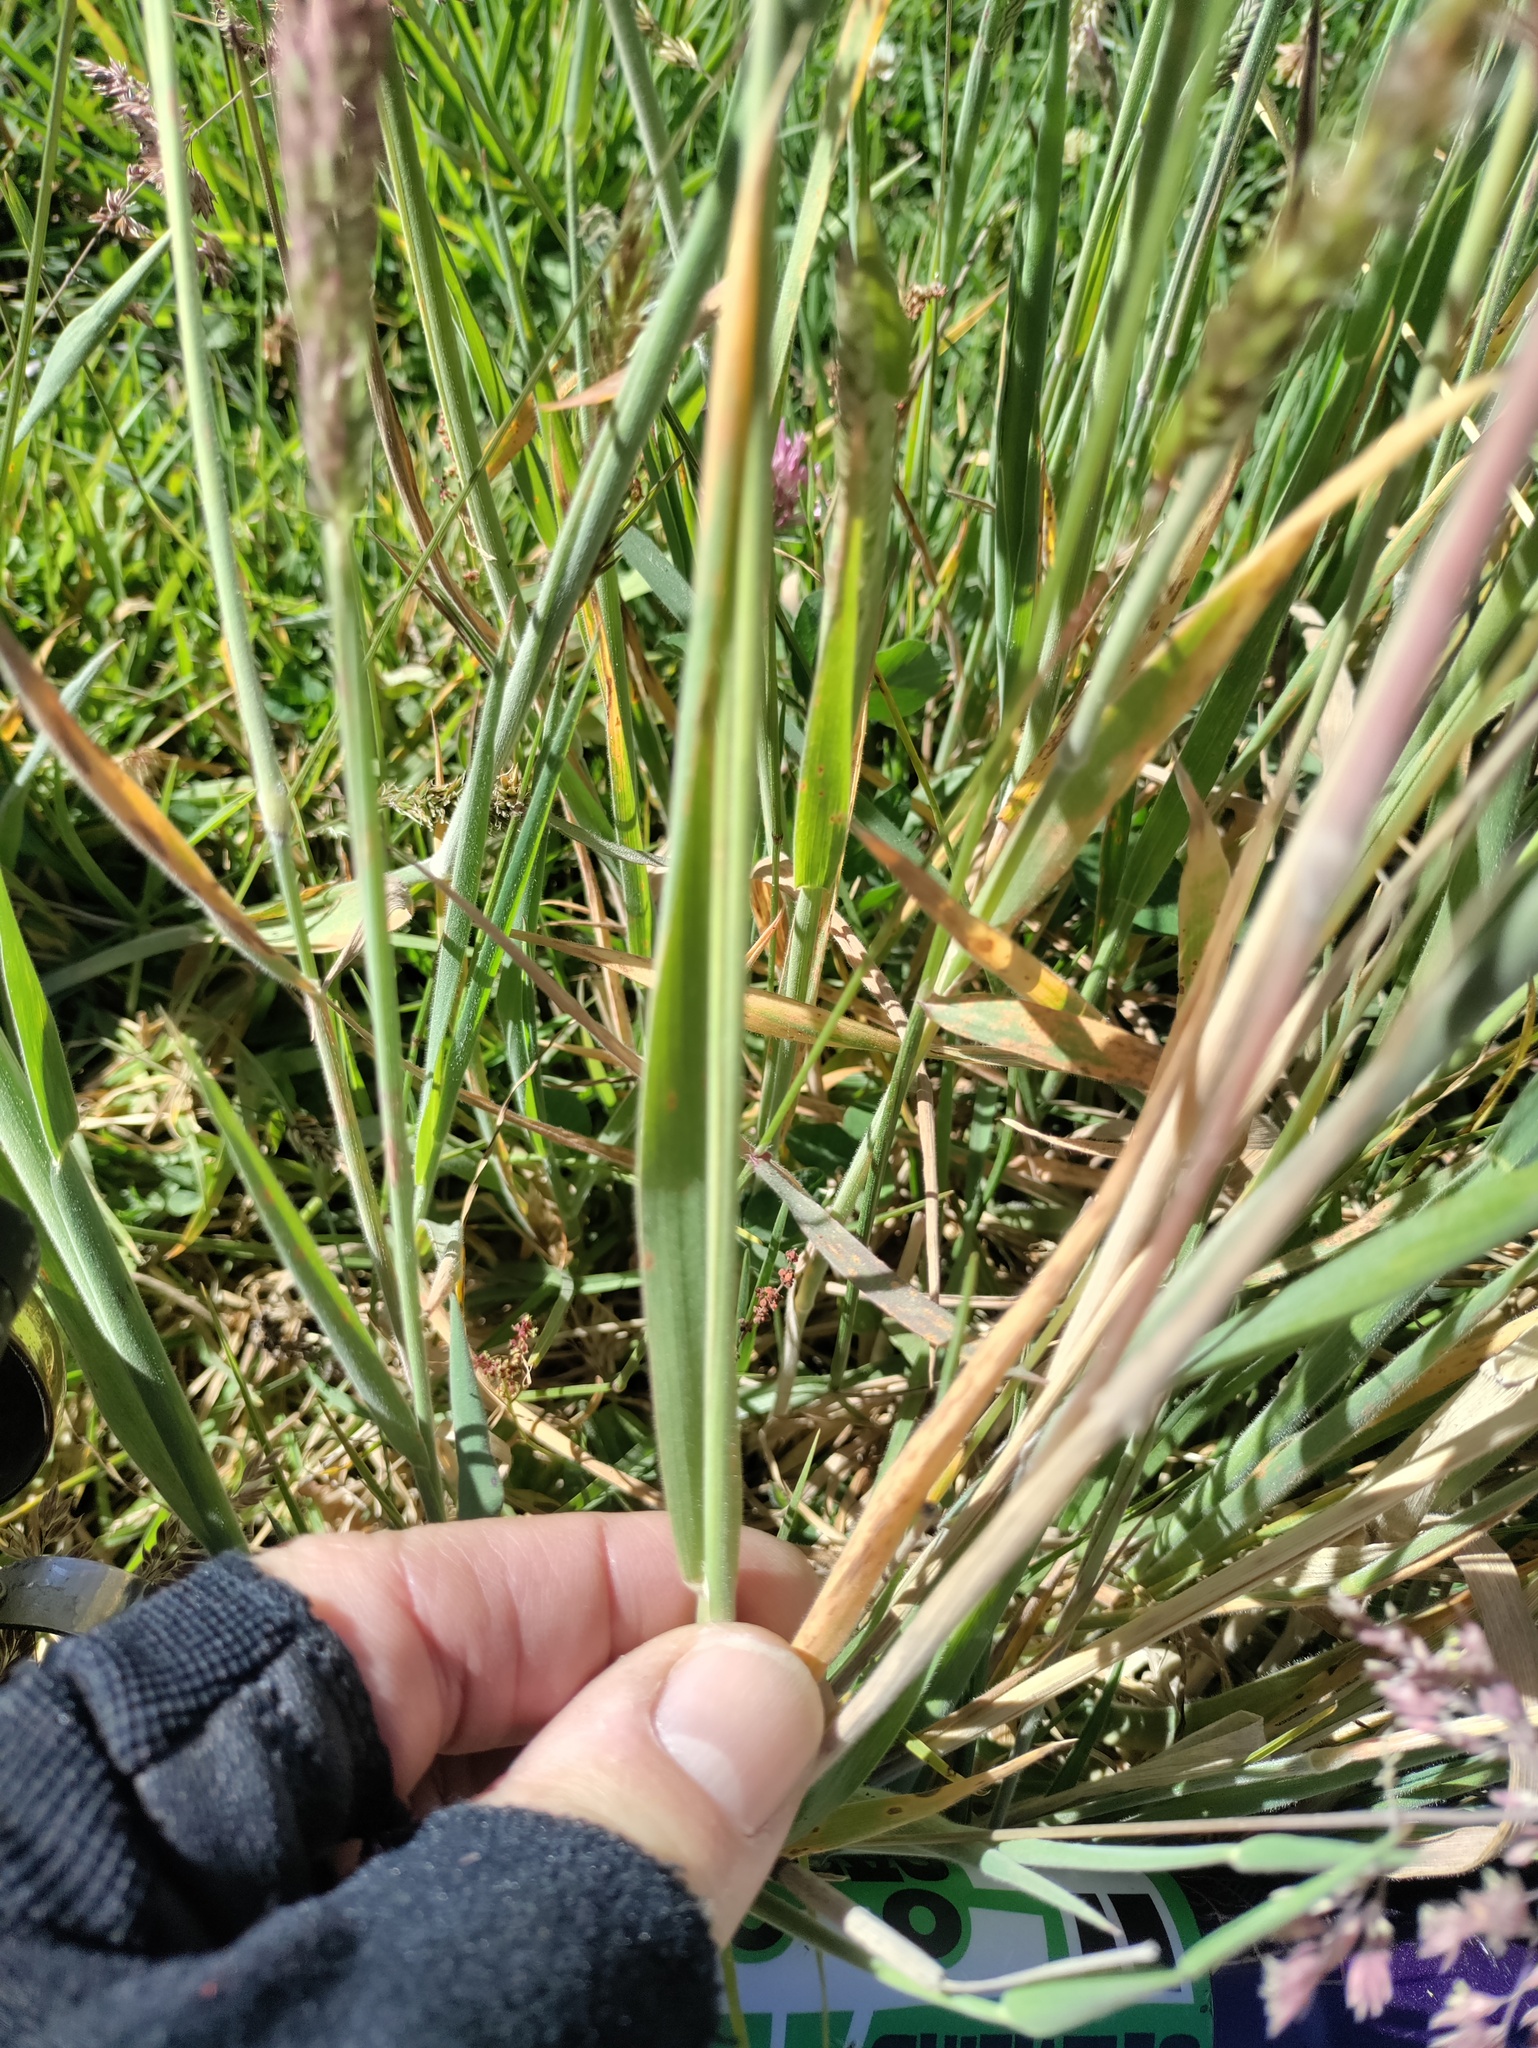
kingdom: Plantae
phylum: Tracheophyta
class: Liliopsida
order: Poales
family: Poaceae
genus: Holcus
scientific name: Holcus lanatus
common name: Yorkshire-fog
